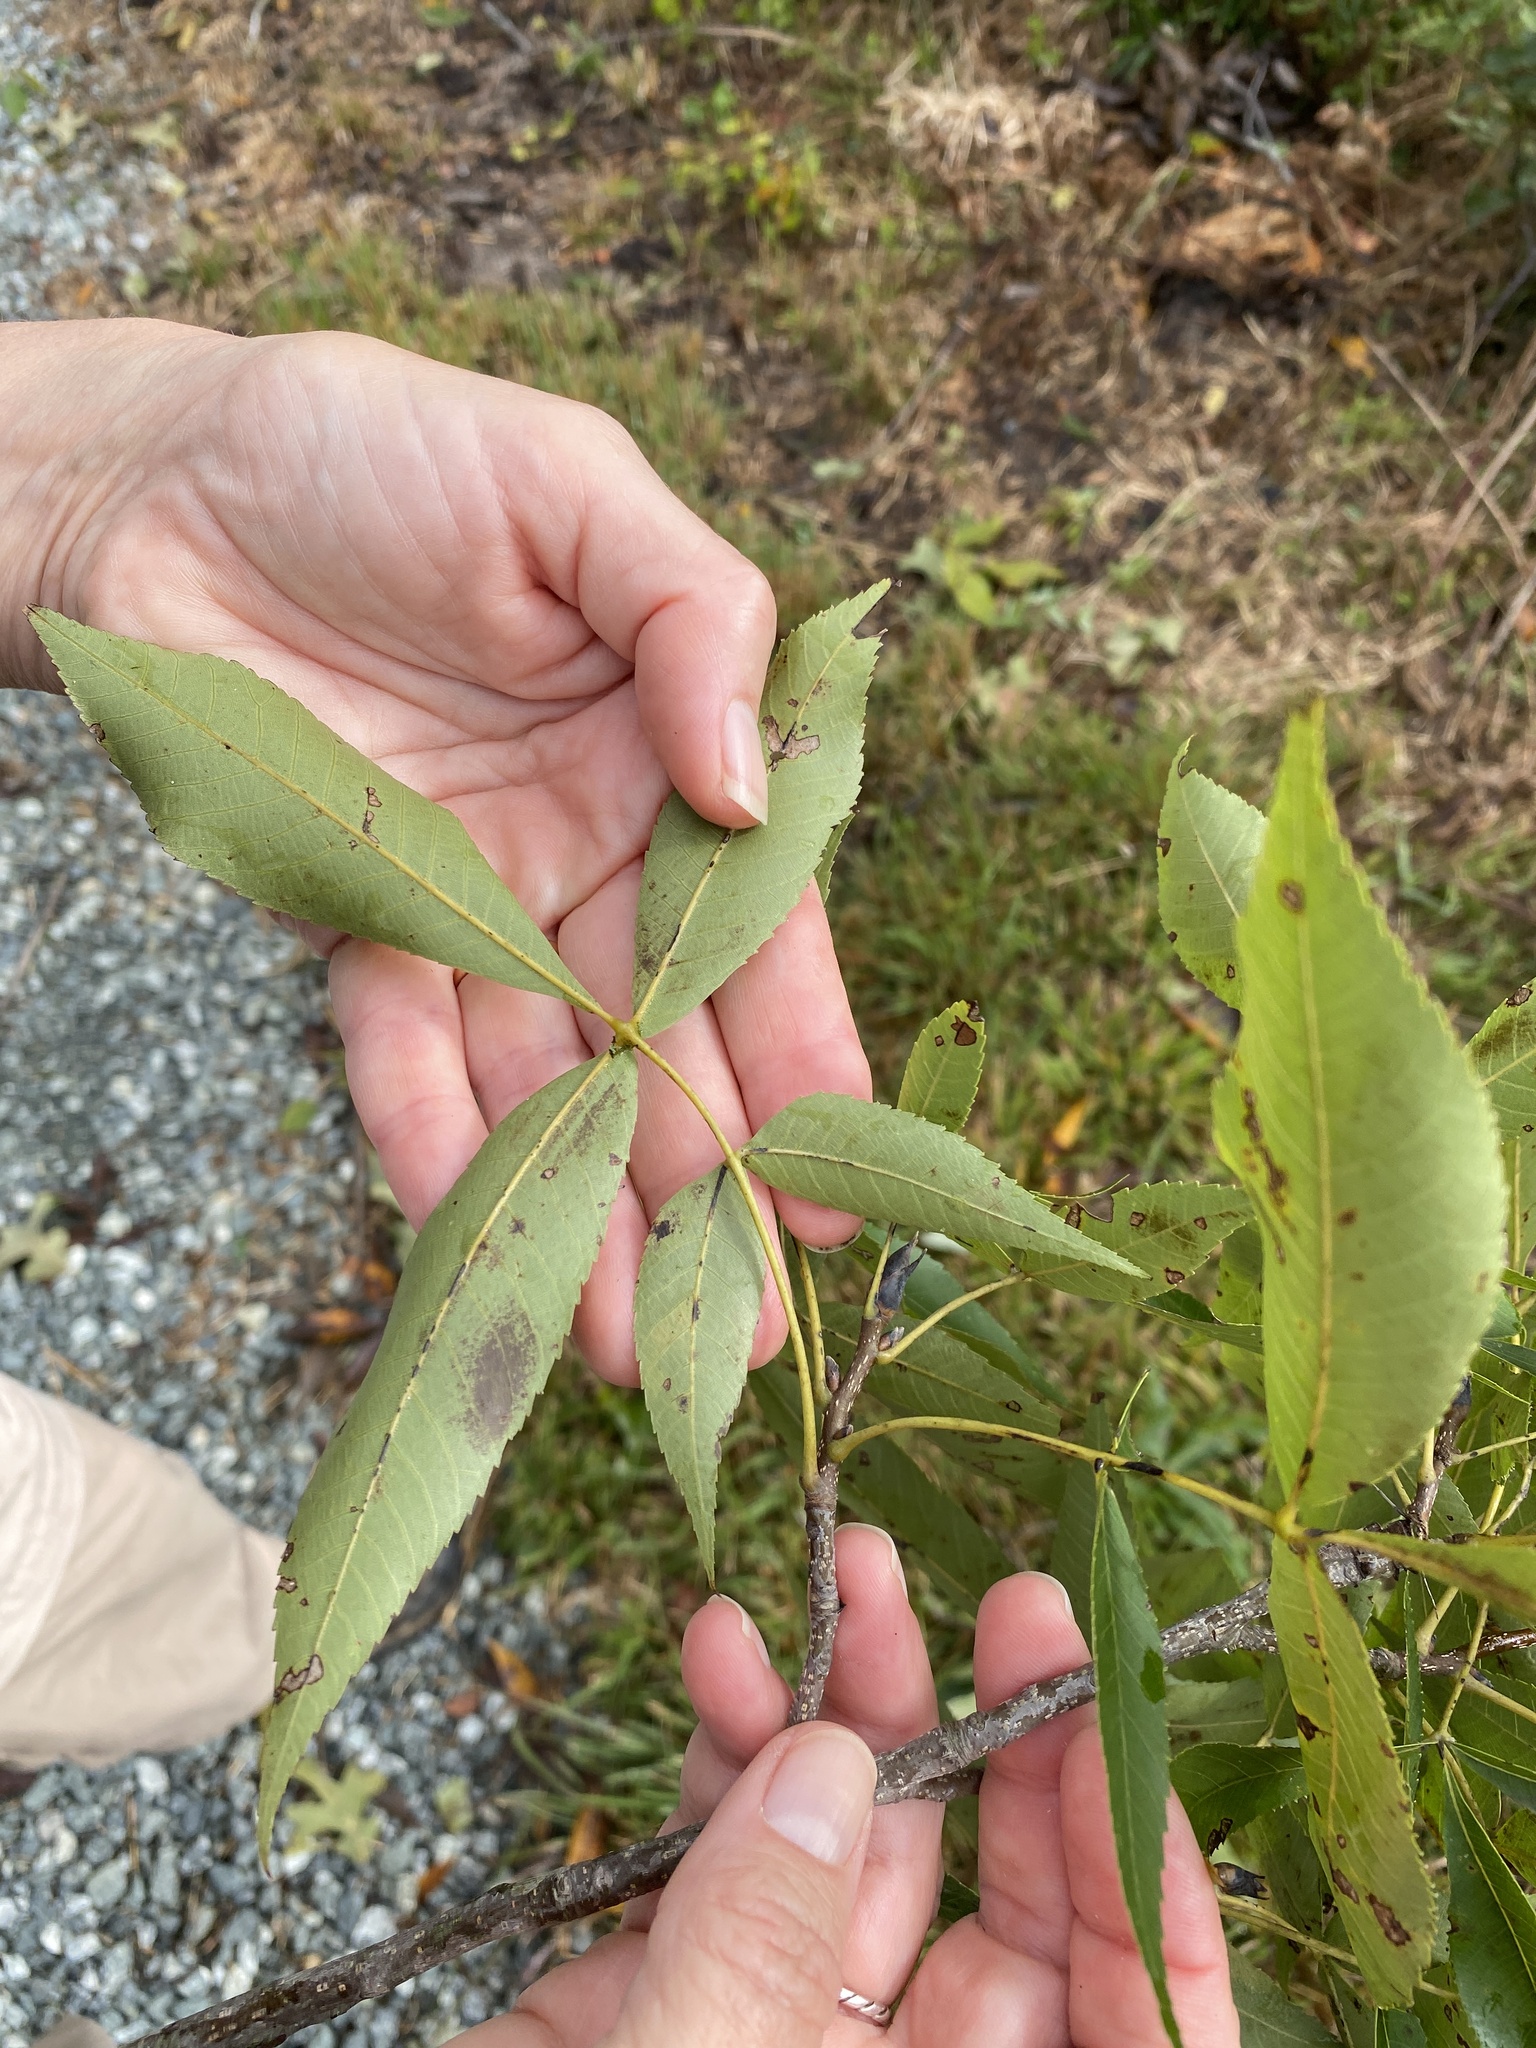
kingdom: Plantae
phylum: Tracheophyta
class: Magnoliopsida
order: Fagales
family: Juglandaceae
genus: Carya
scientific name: Carya glabra
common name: Pignut hickory
